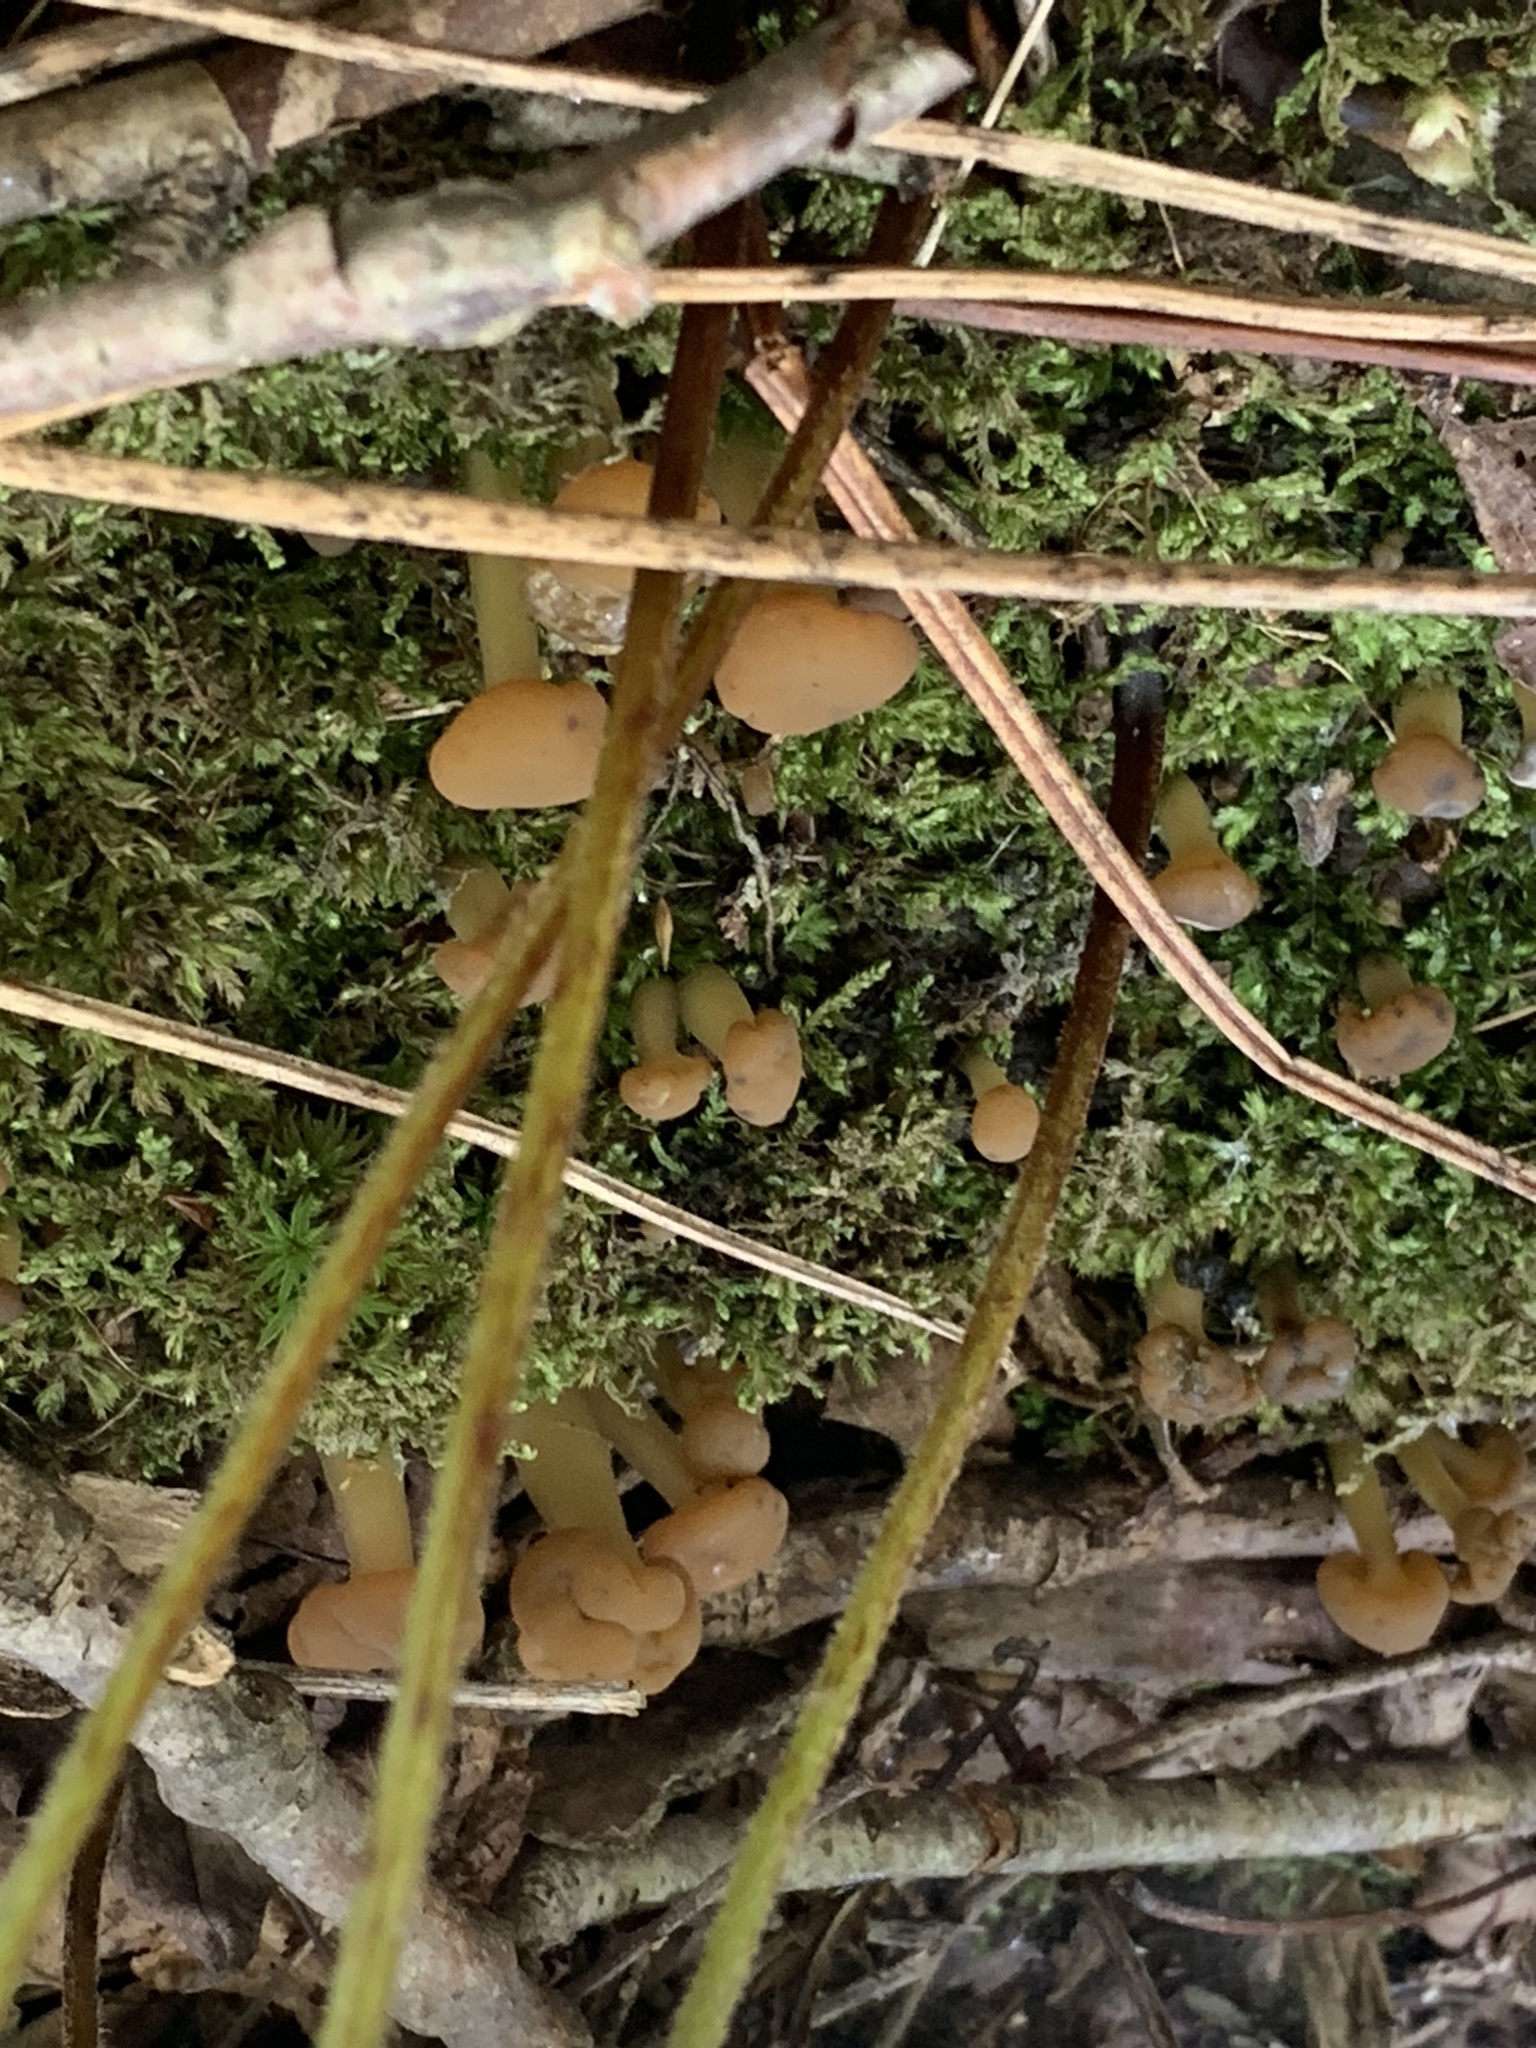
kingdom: Fungi
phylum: Ascomycota
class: Leotiomycetes
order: Leotiales
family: Leotiaceae
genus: Leotia
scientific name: Leotia lubrica
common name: Jellybaby
